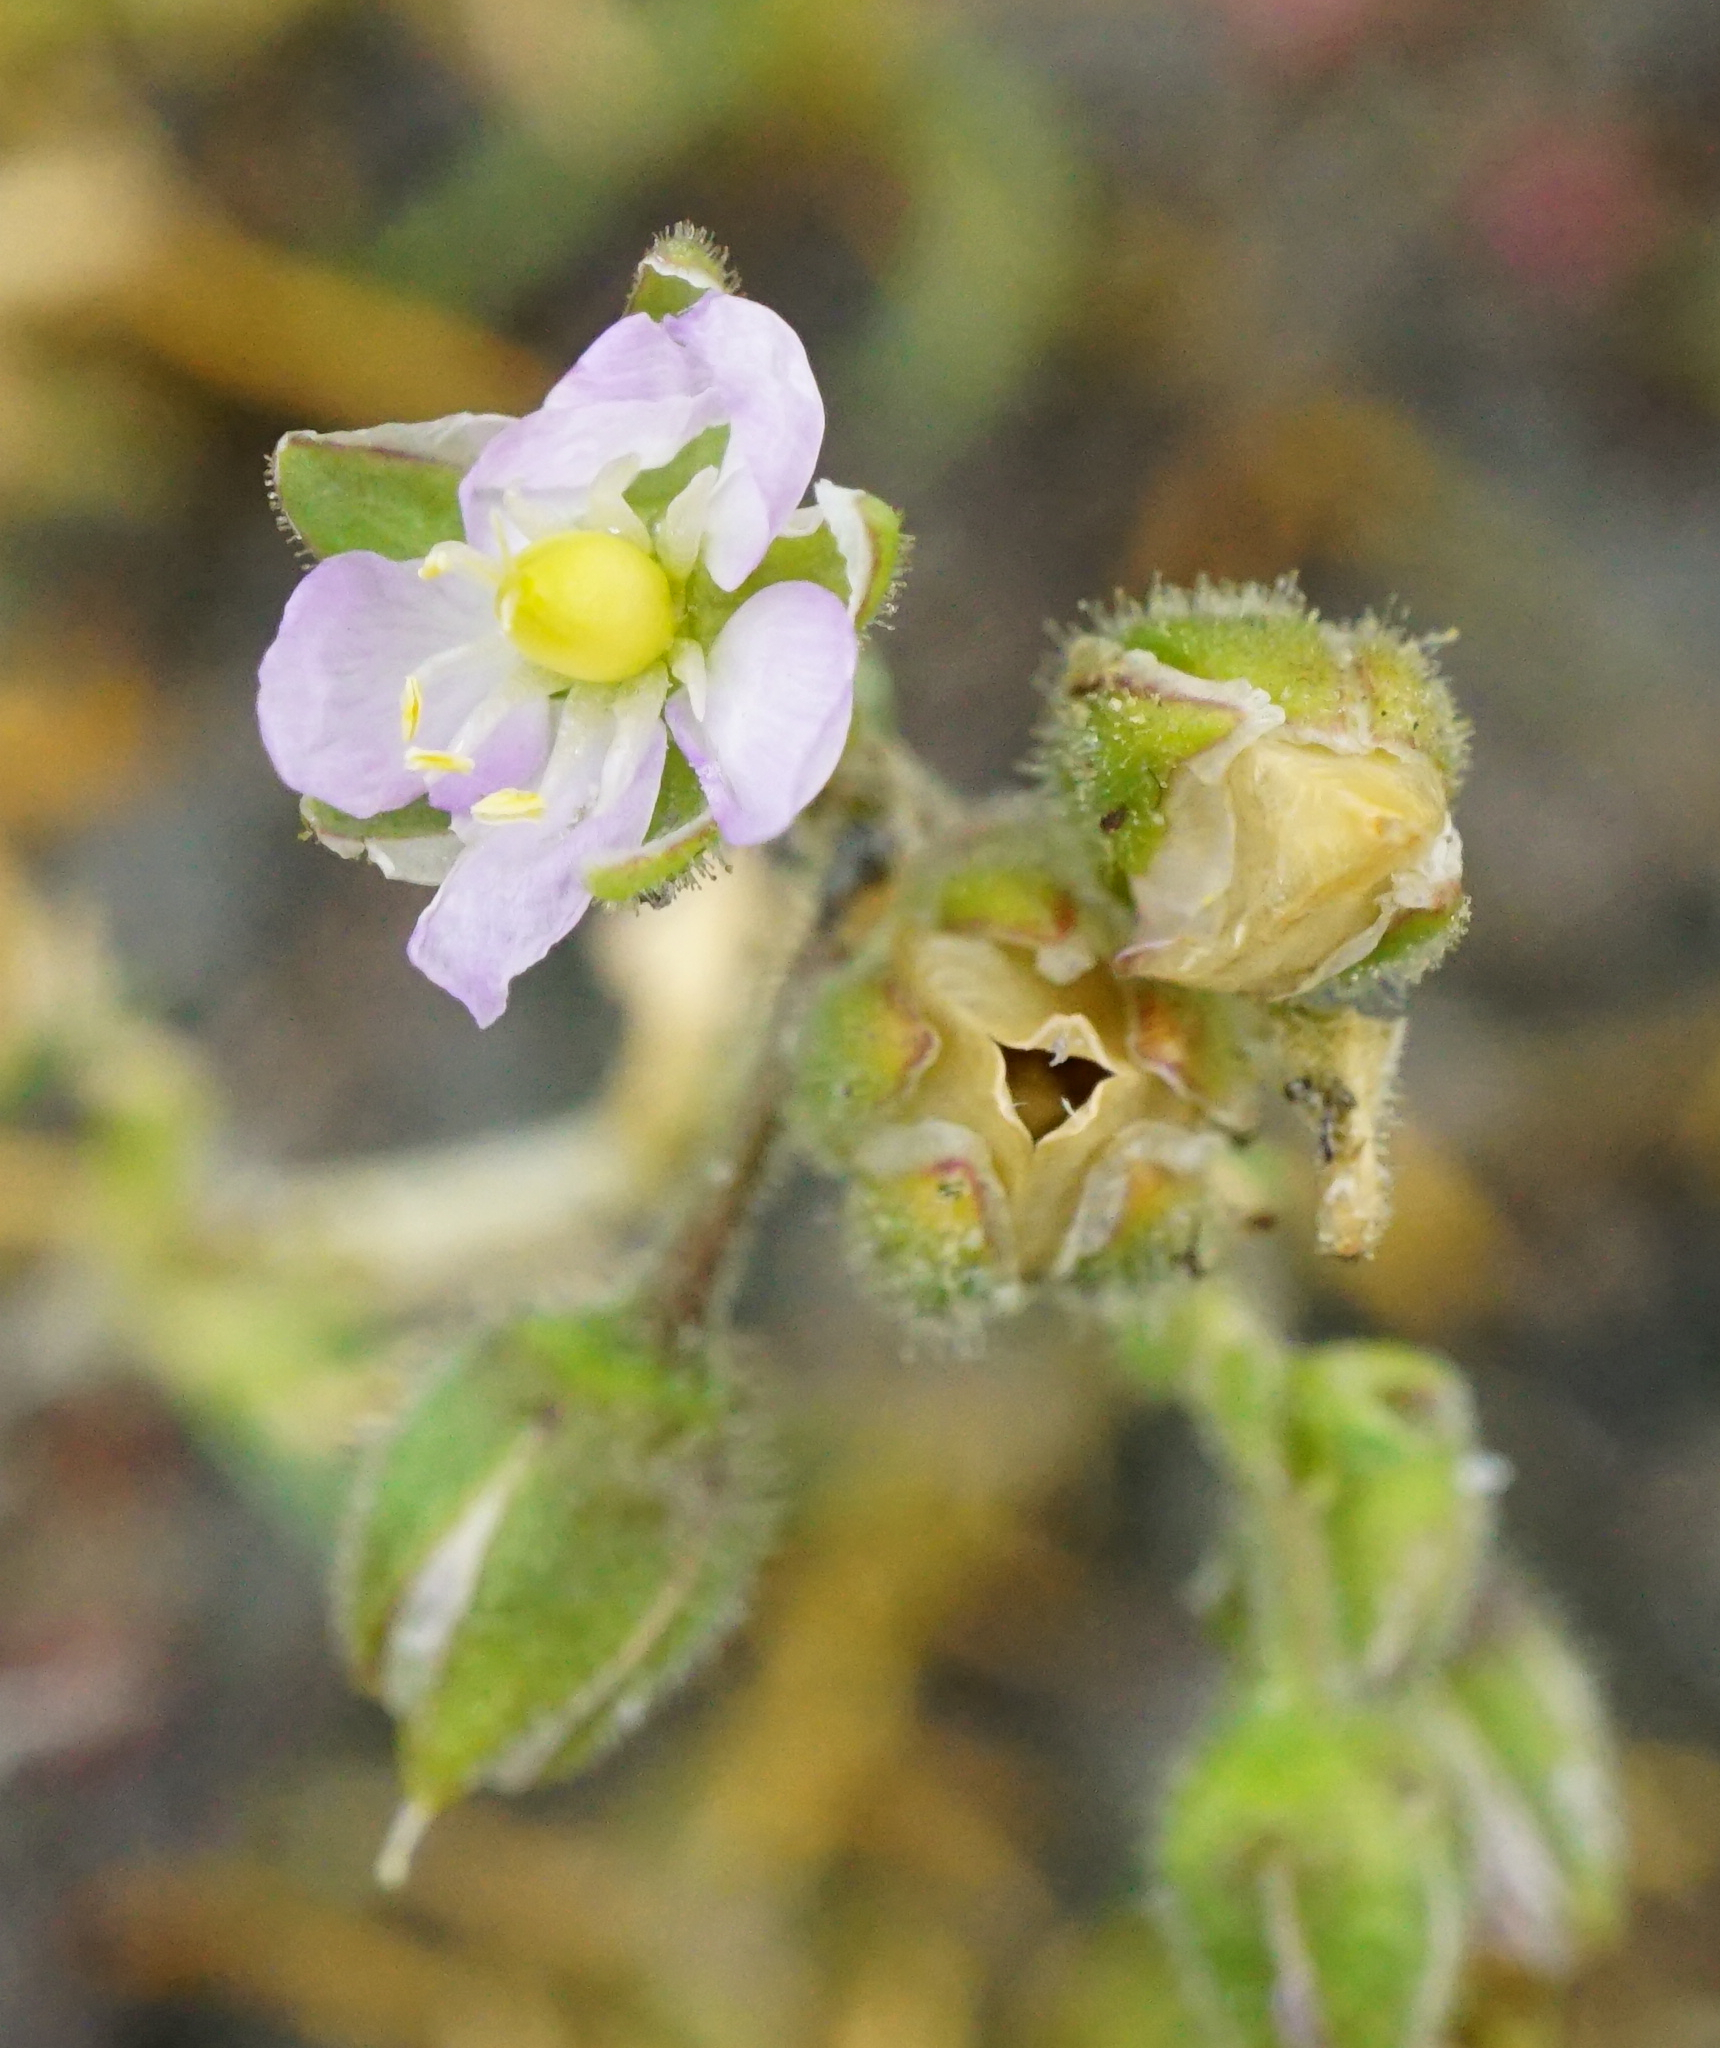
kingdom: Plantae
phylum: Tracheophyta
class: Magnoliopsida
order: Caryophyllales
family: Caryophyllaceae
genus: Spergularia
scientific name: Spergularia media
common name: Greater sea-spurrey
